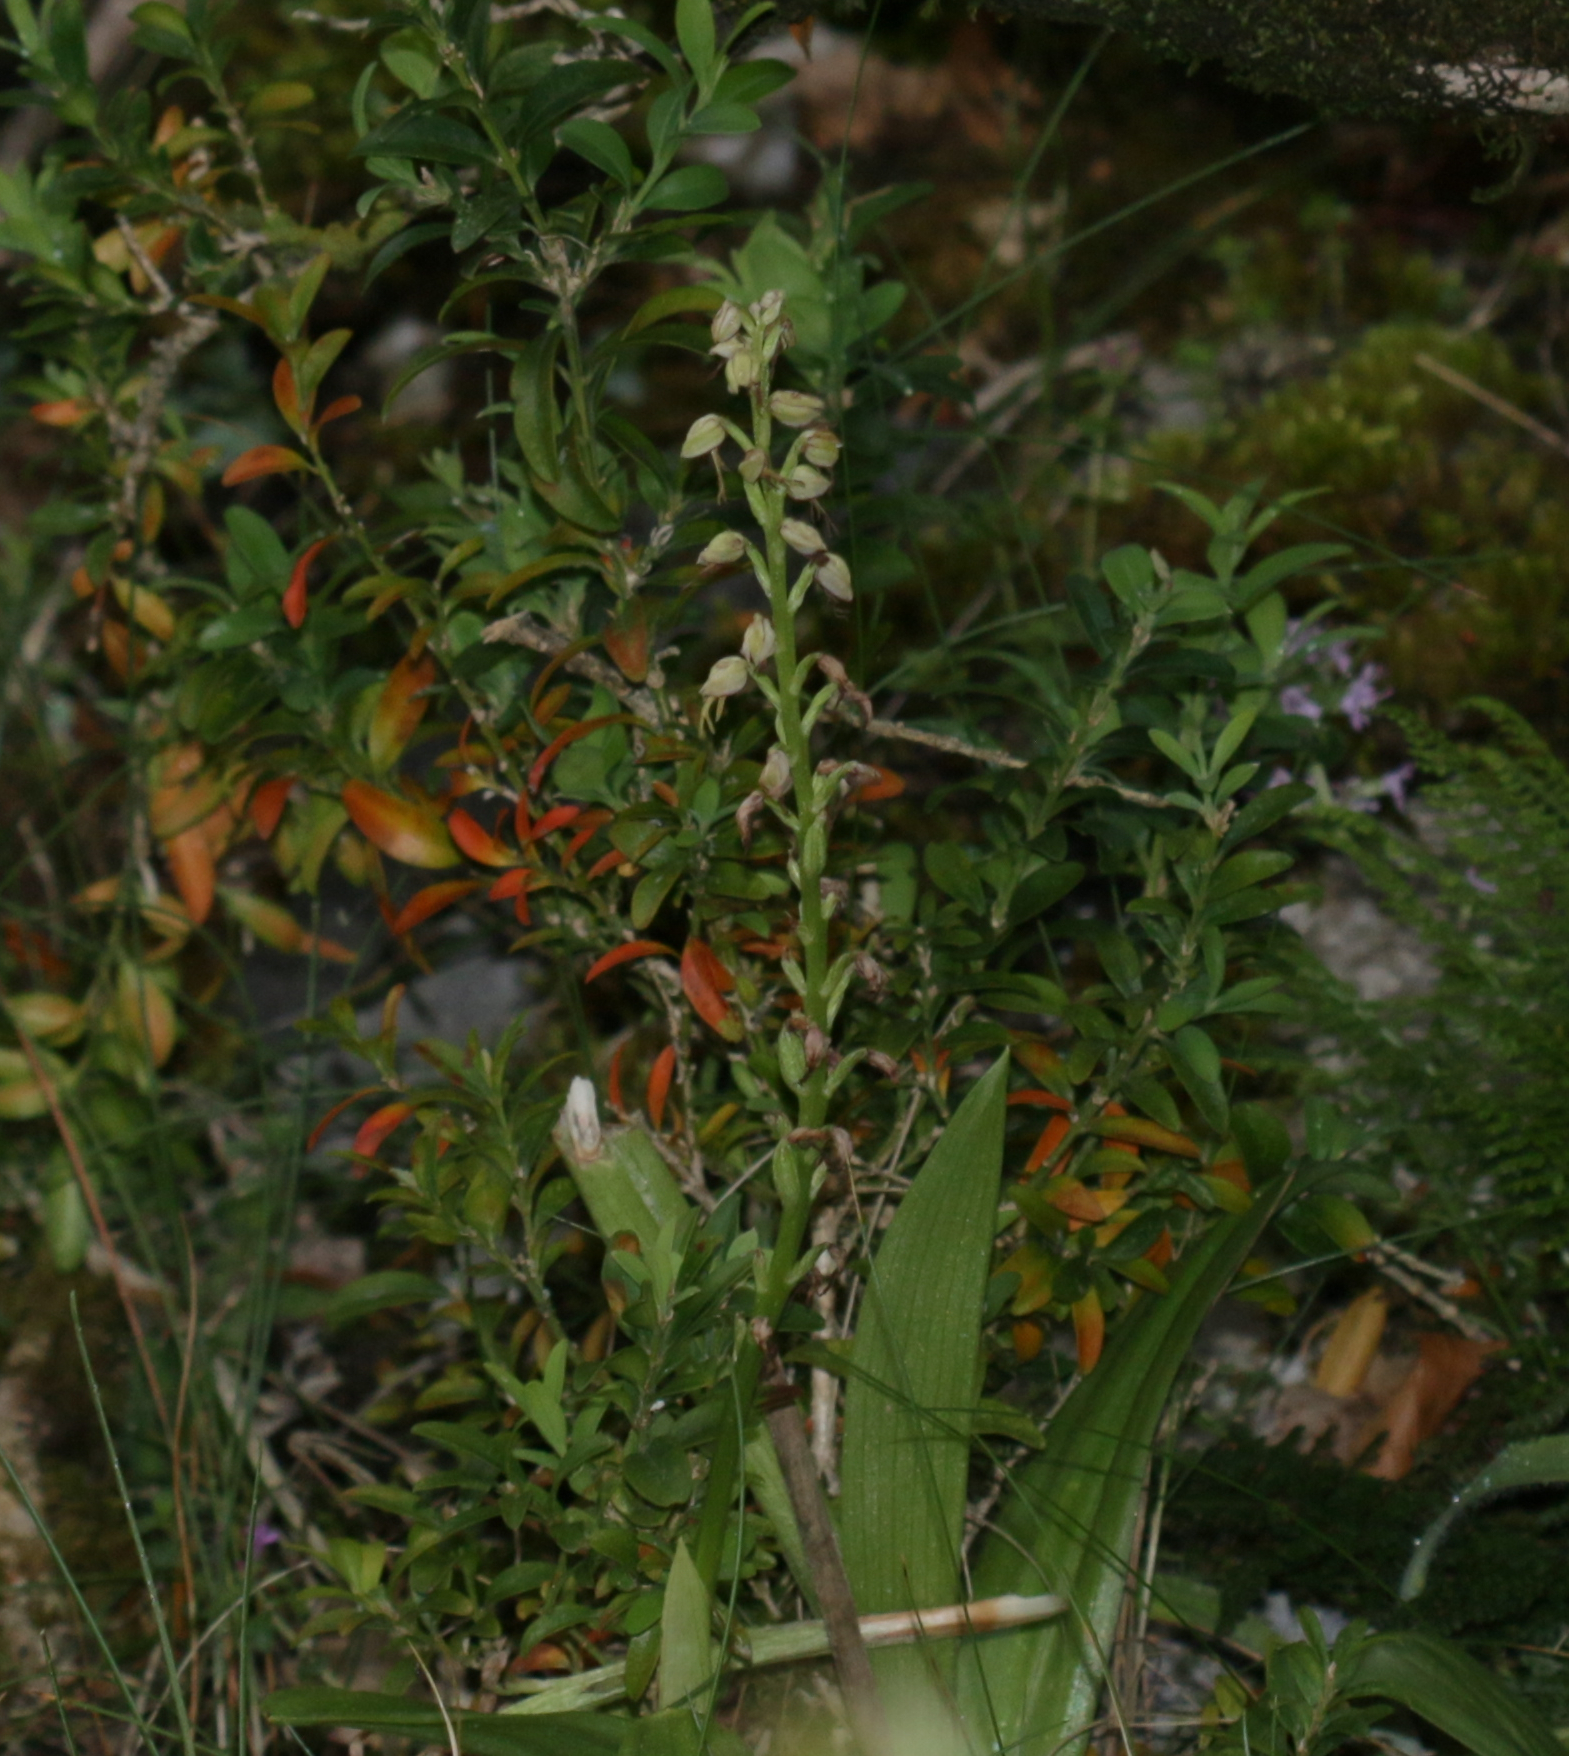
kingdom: Plantae
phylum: Tracheophyta
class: Liliopsida
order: Asparagales
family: Orchidaceae
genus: Orchis
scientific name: Orchis anthropophora
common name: Man orchid
